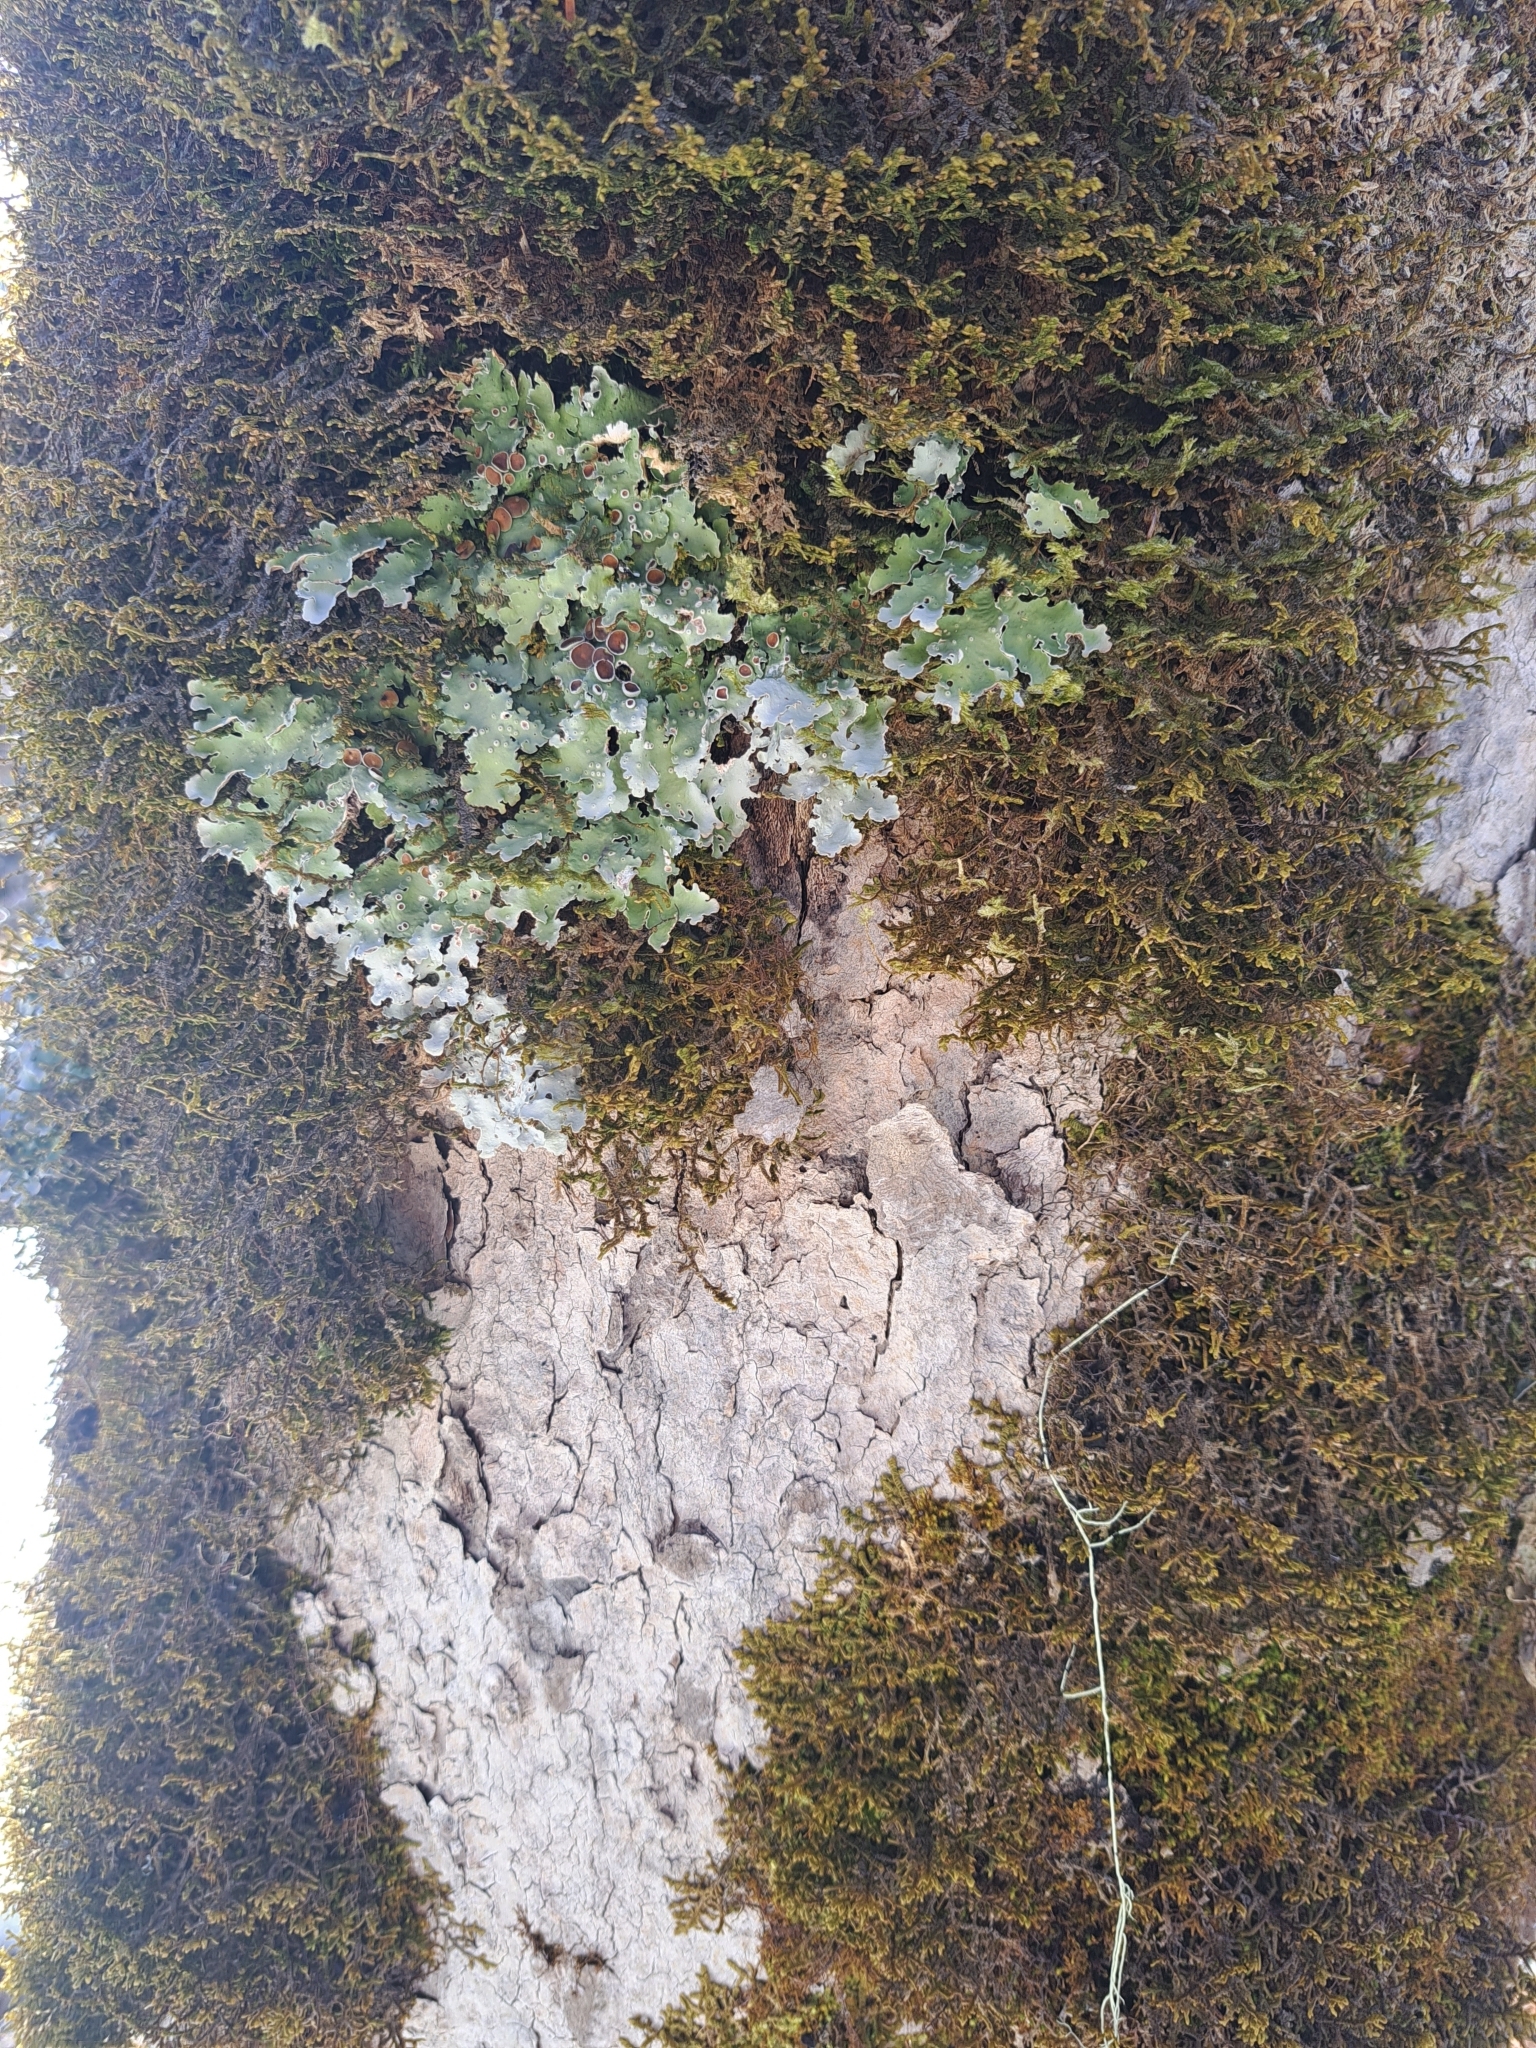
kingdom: Fungi
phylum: Ascomycota
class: Lecanoromycetes
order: Peltigerales
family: Lobariaceae
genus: Ricasolia
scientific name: Ricasolia quercizans
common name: Smooth lungwort
